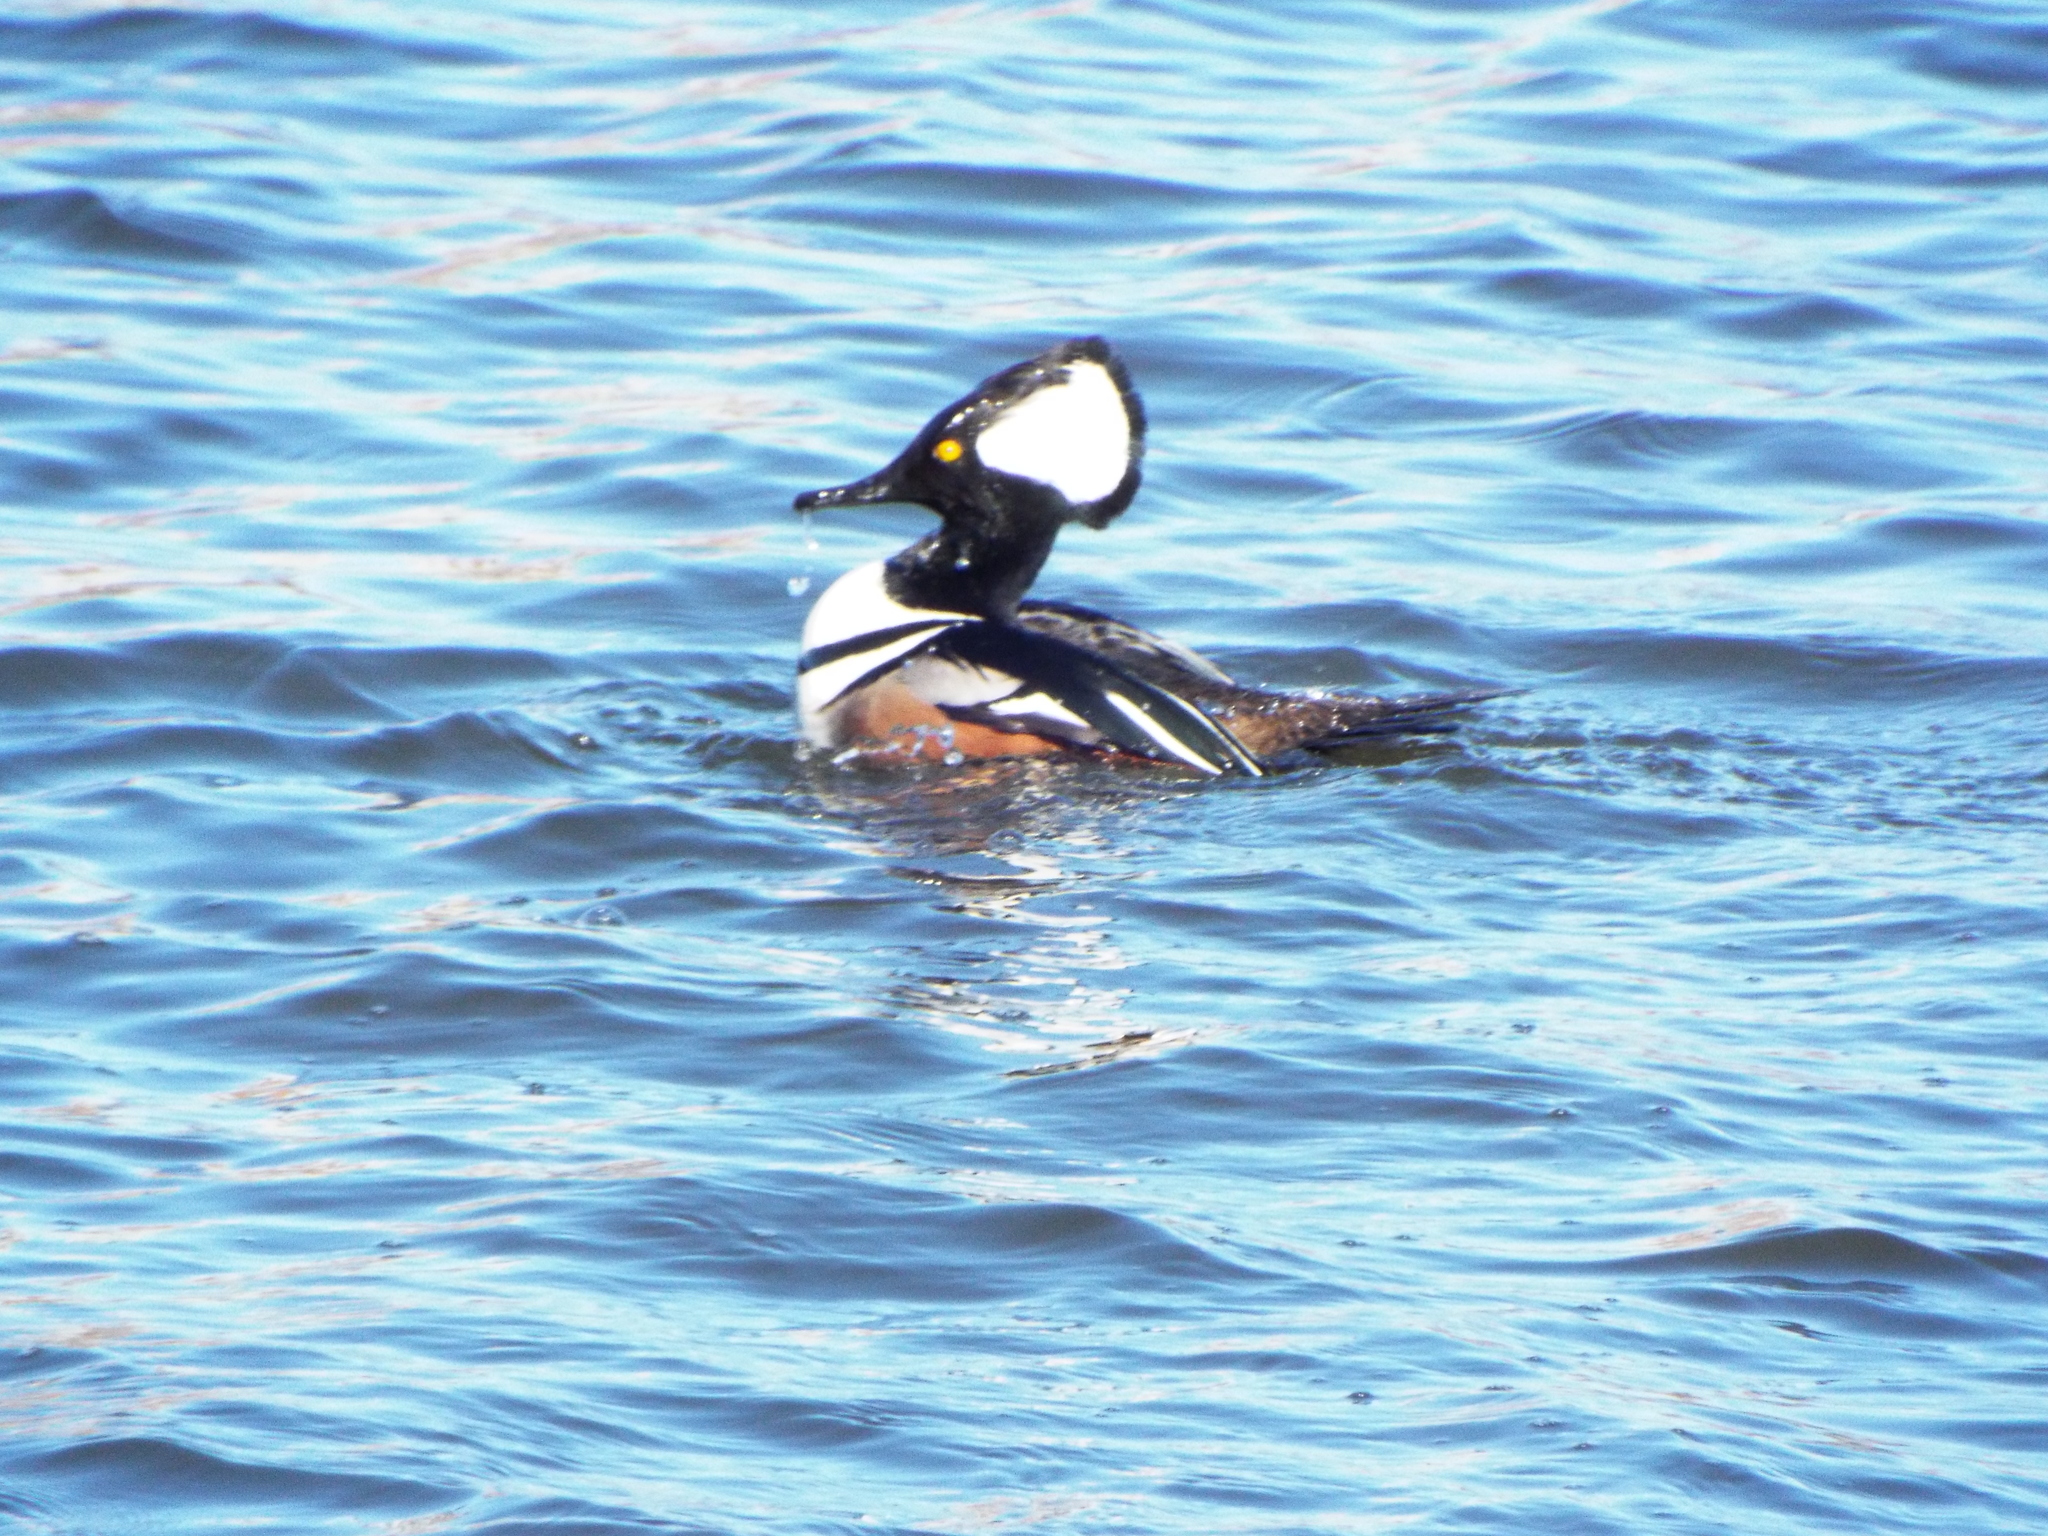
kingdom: Animalia
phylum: Chordata
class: Aves
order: Anseriformes
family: Anatidae
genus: Lophodytes
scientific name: Lophodytes cucullatus
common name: Hooded merganser
